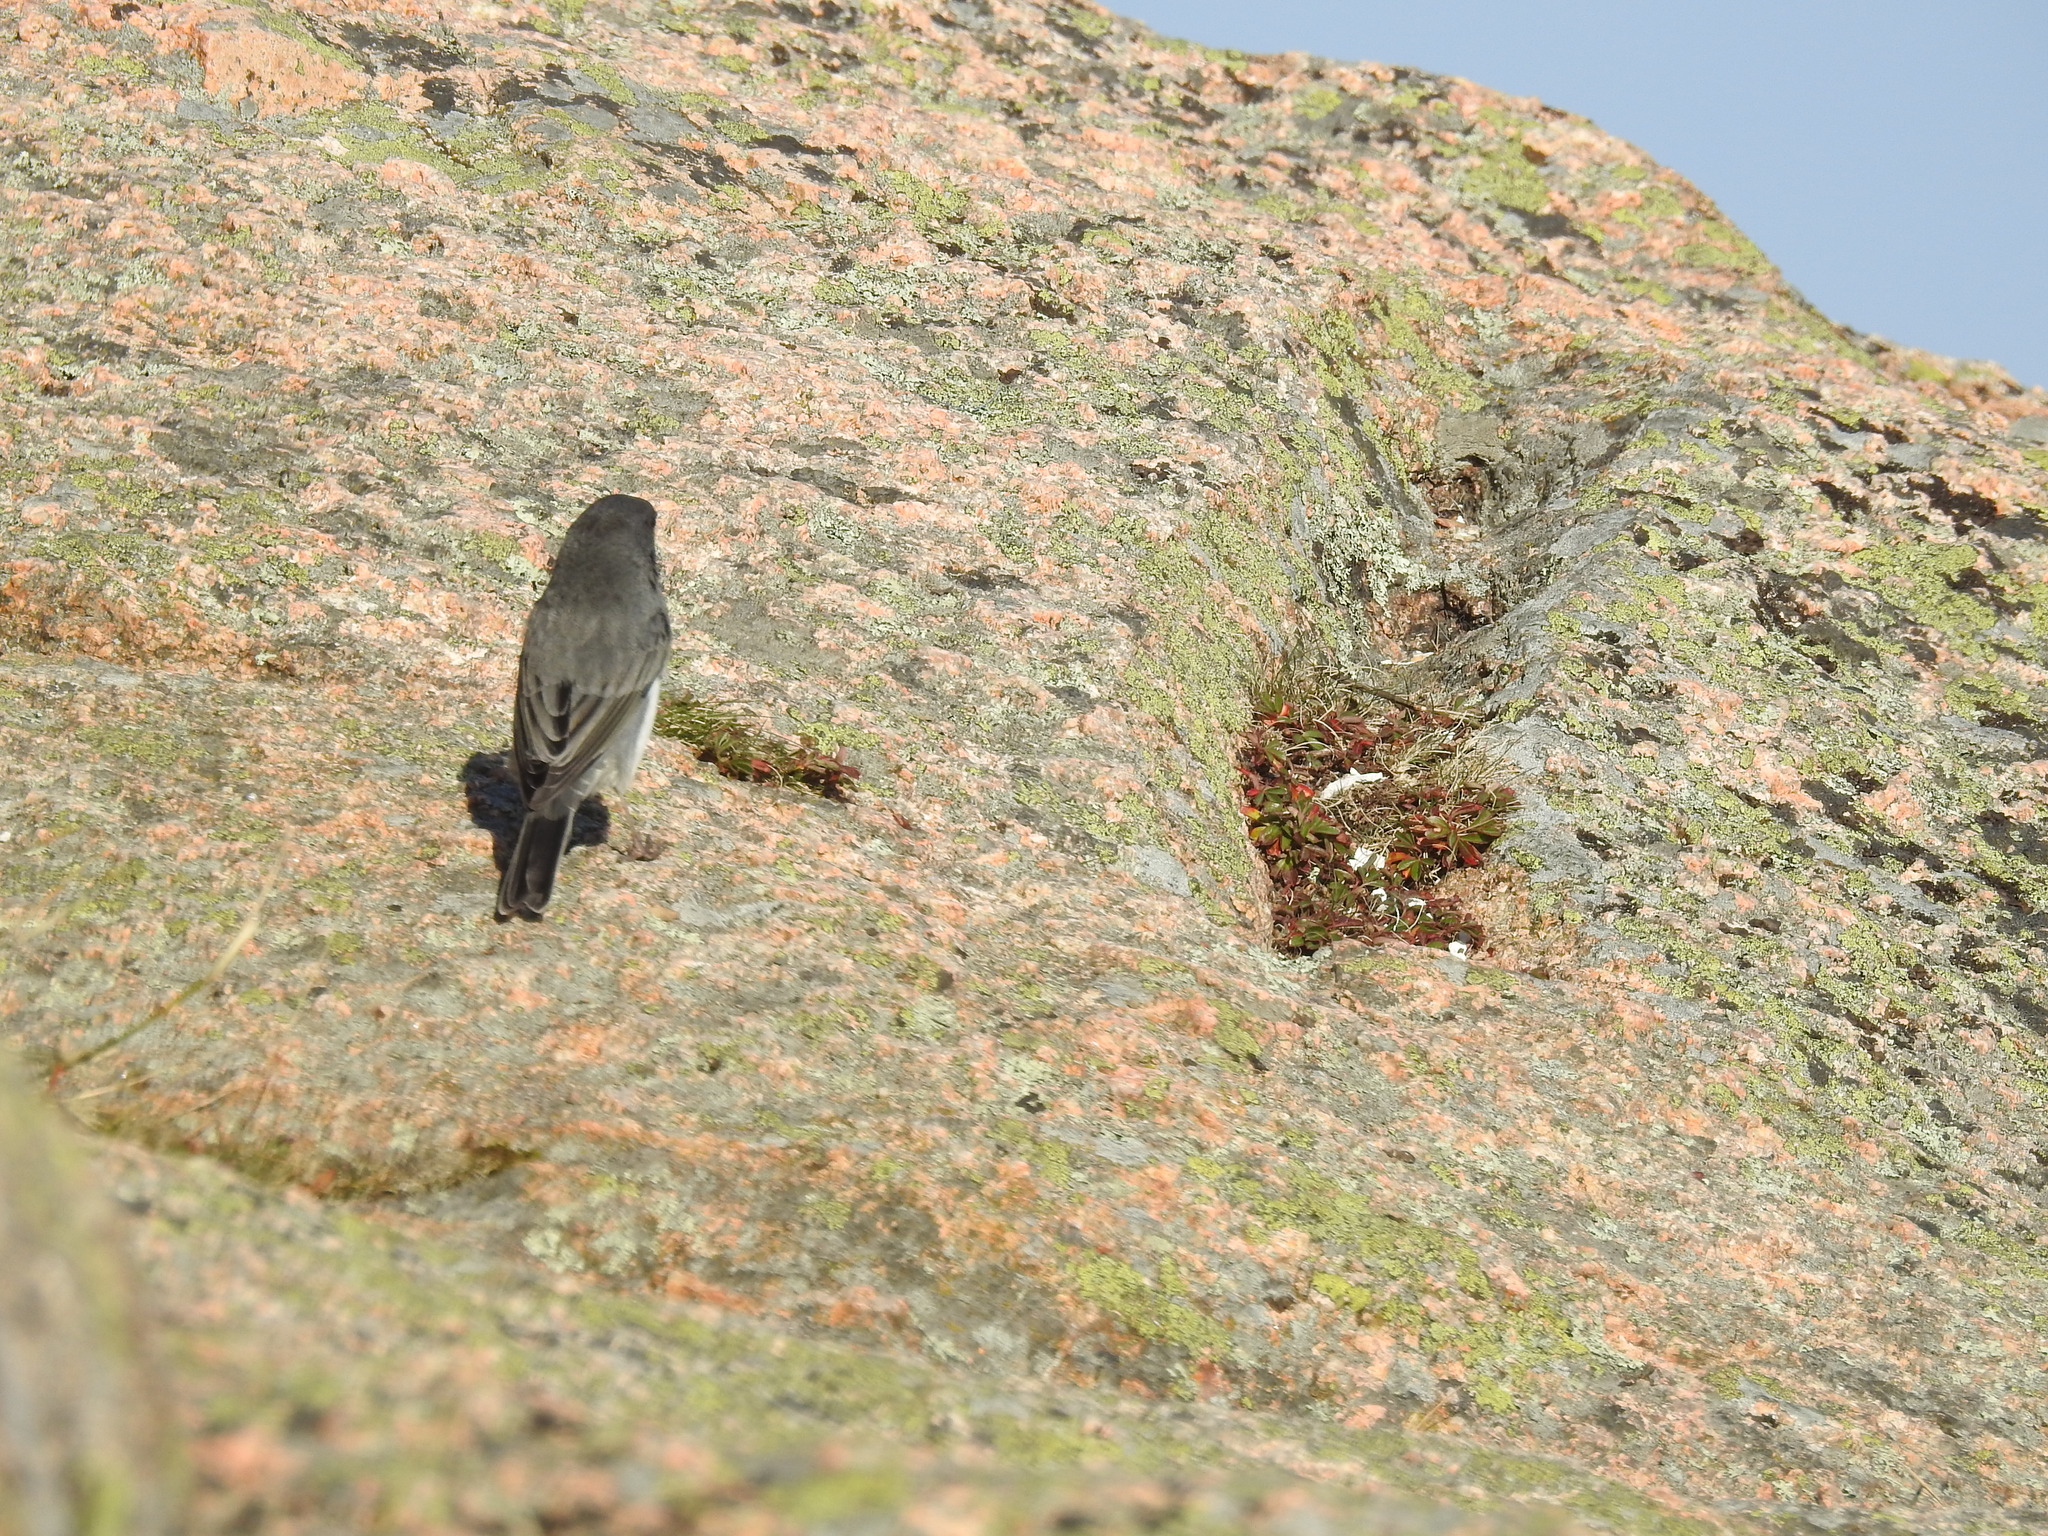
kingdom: Animalia
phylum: Chordata
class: Aves
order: Passeriformes
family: Passerellidae
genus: Junco
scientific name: Junco hyemalis
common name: Dark-eyed junco
